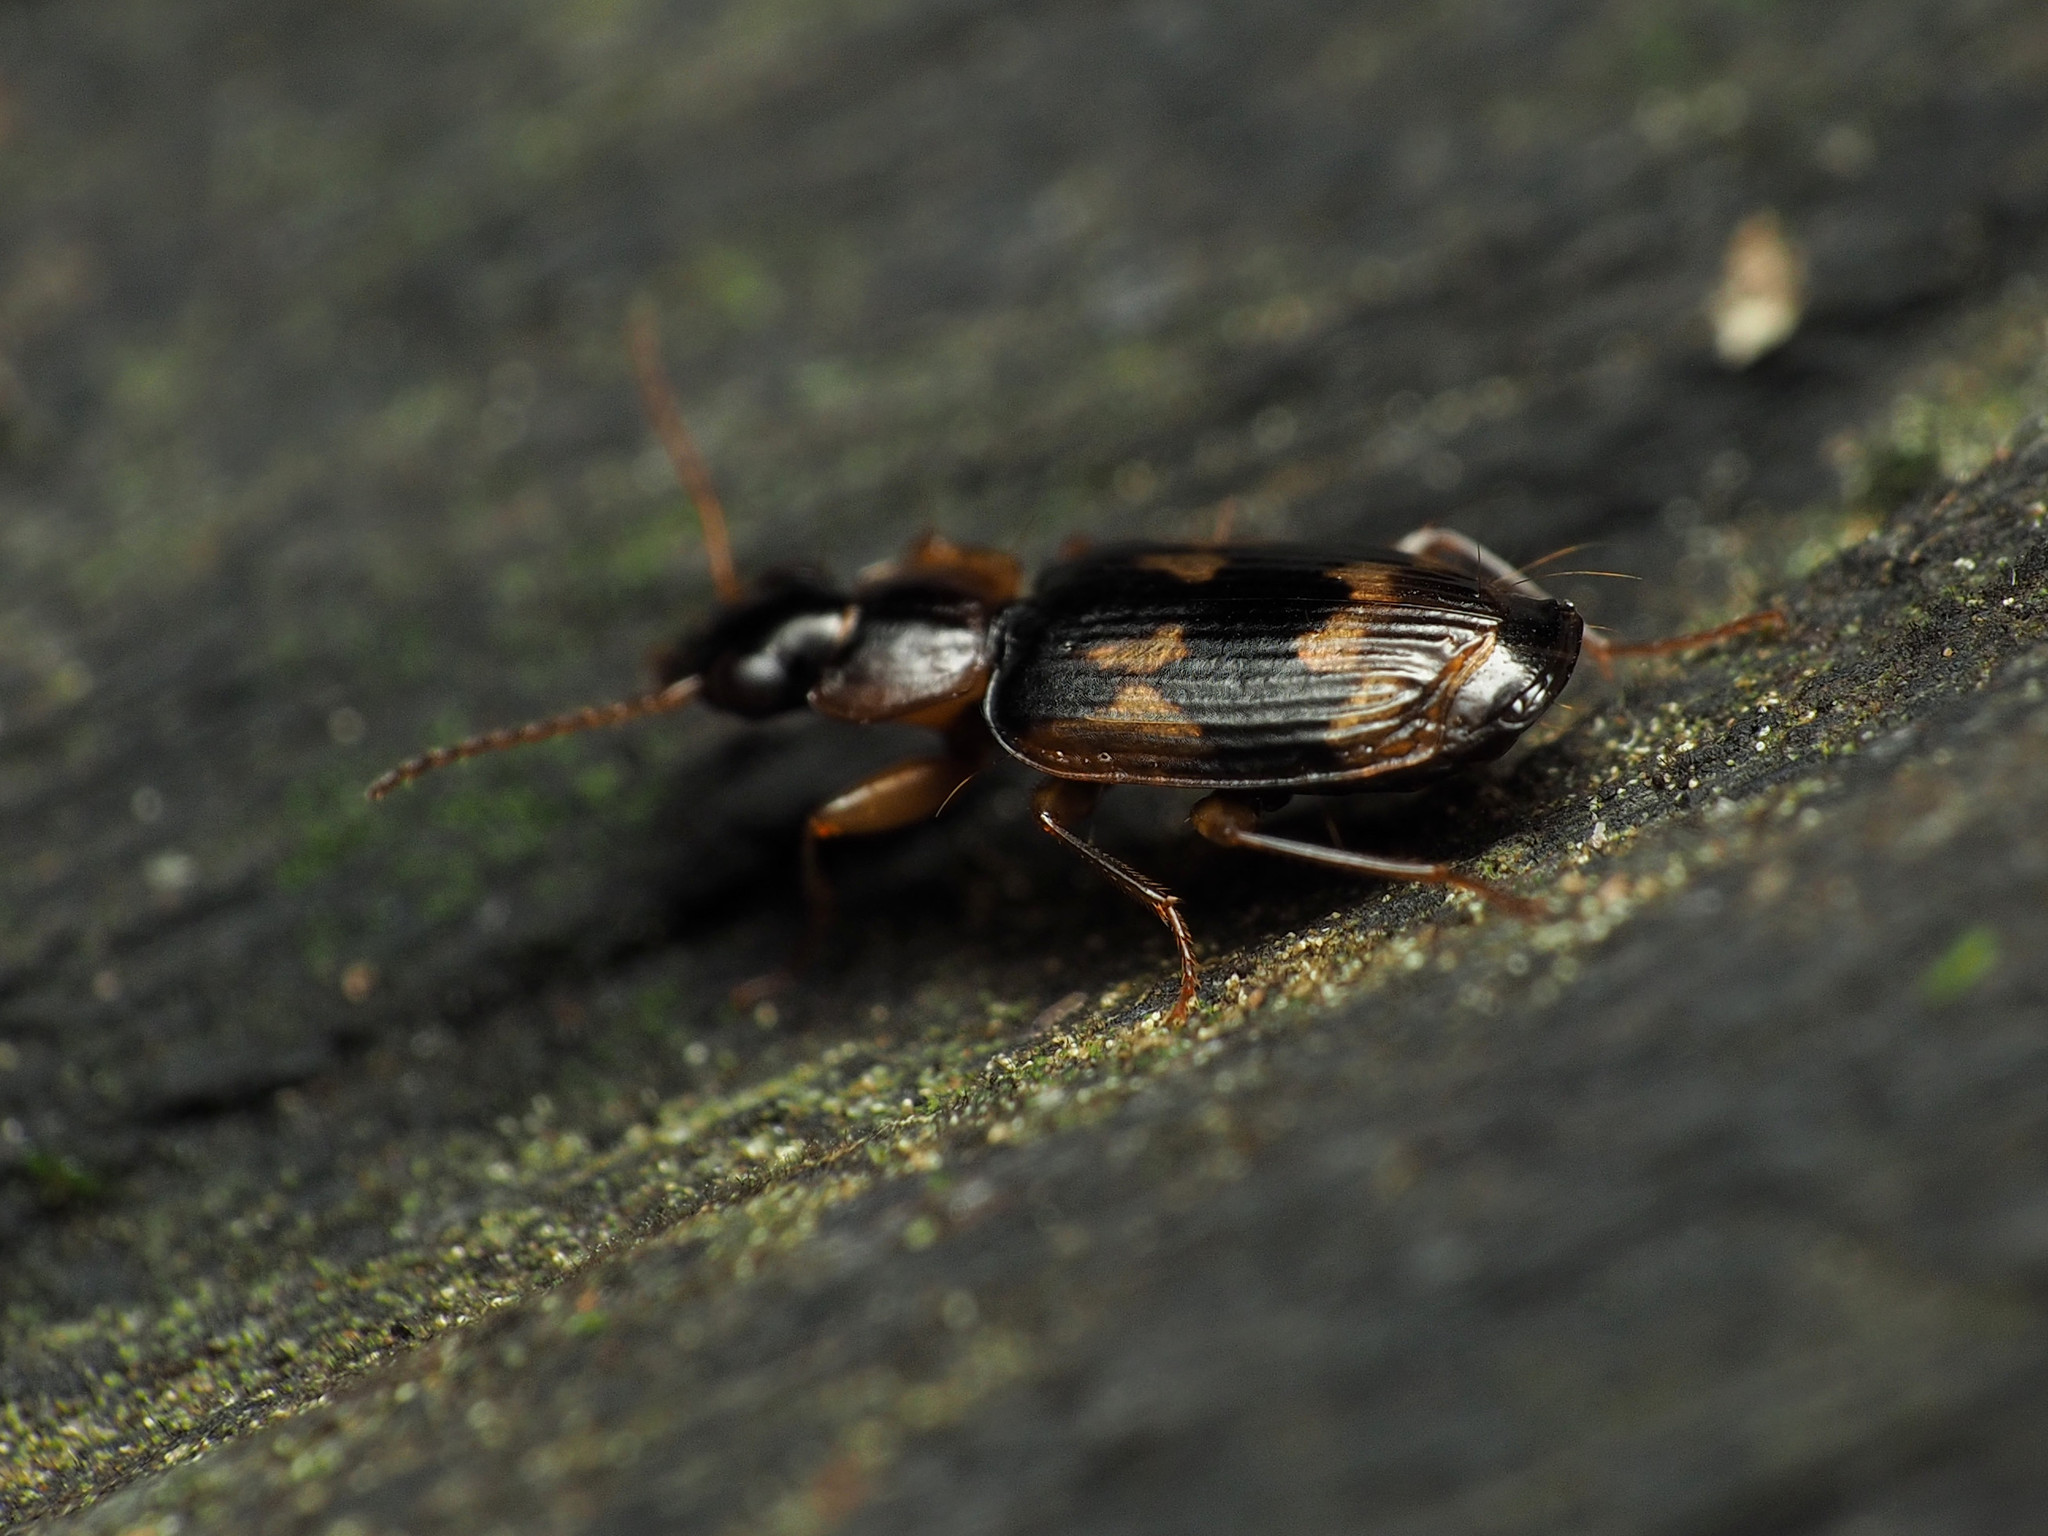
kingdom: Animalia
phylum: Arthropoda
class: Insecta
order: Coleoptera
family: Carabidae
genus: Phloeoxena
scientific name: Phloeoxena signata
